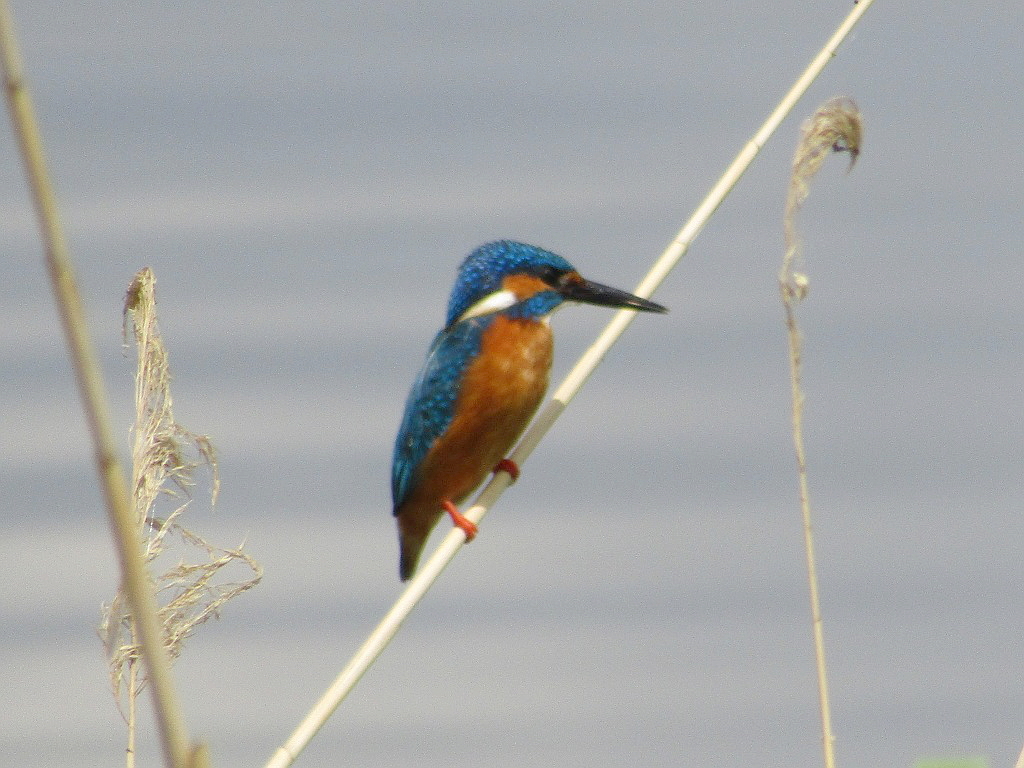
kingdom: Animalia
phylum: Chordata
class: Aves
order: Coraciiformes
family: Alcedinidae
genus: Alcedo
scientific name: Alcedo atthis
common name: Common kingfisher
